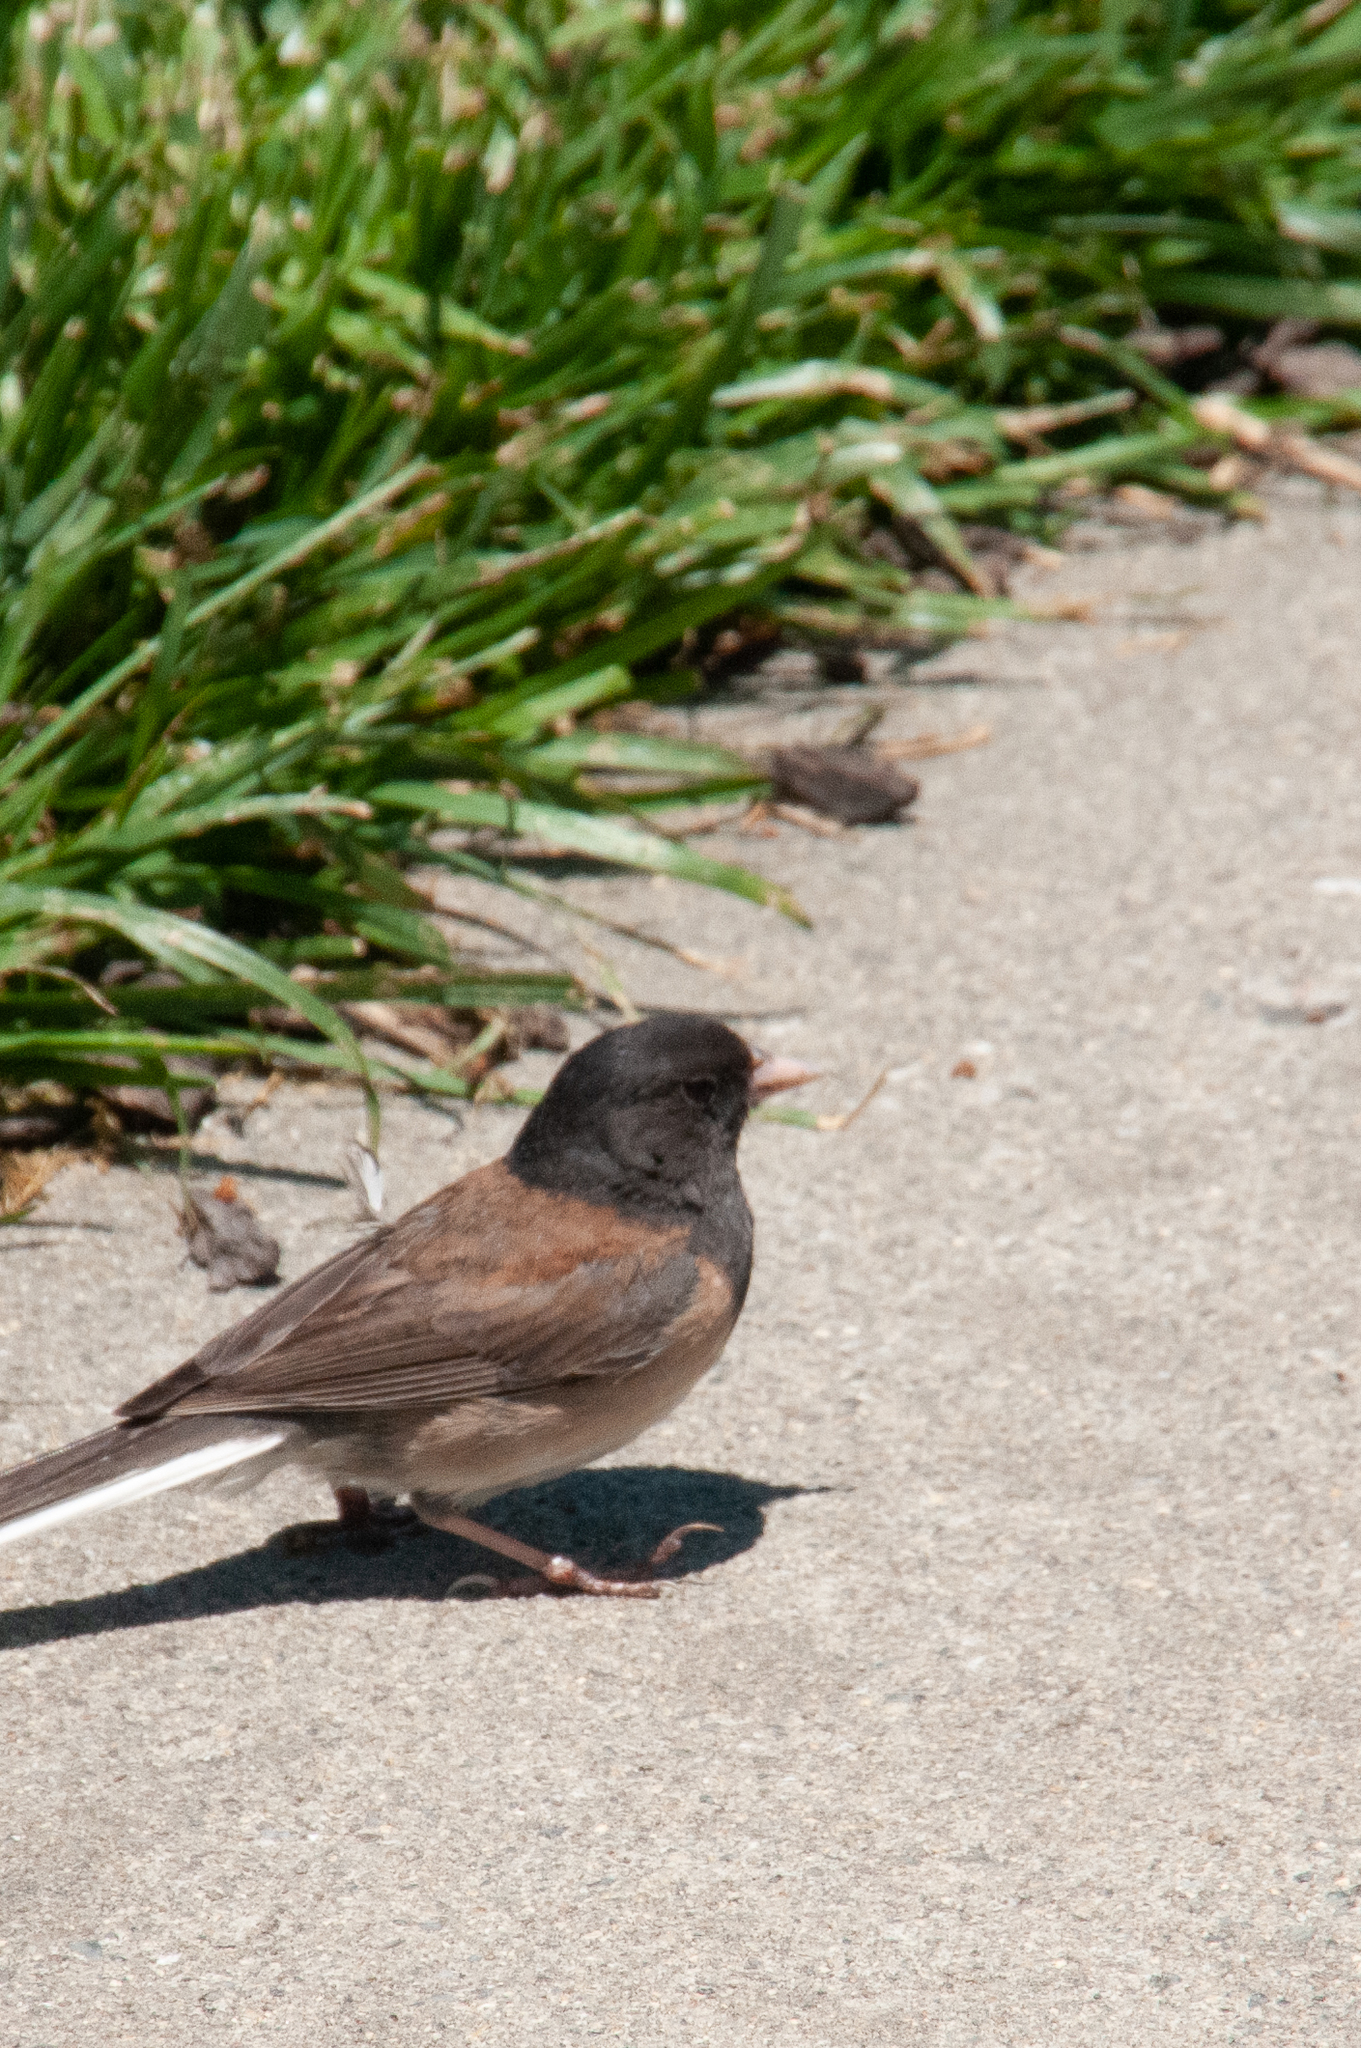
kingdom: Animalia
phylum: Chordata
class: Aves
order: Passeriformes
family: Passerellidae
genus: Junco
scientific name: Junco hyemalis
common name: Dark-eyed junco
